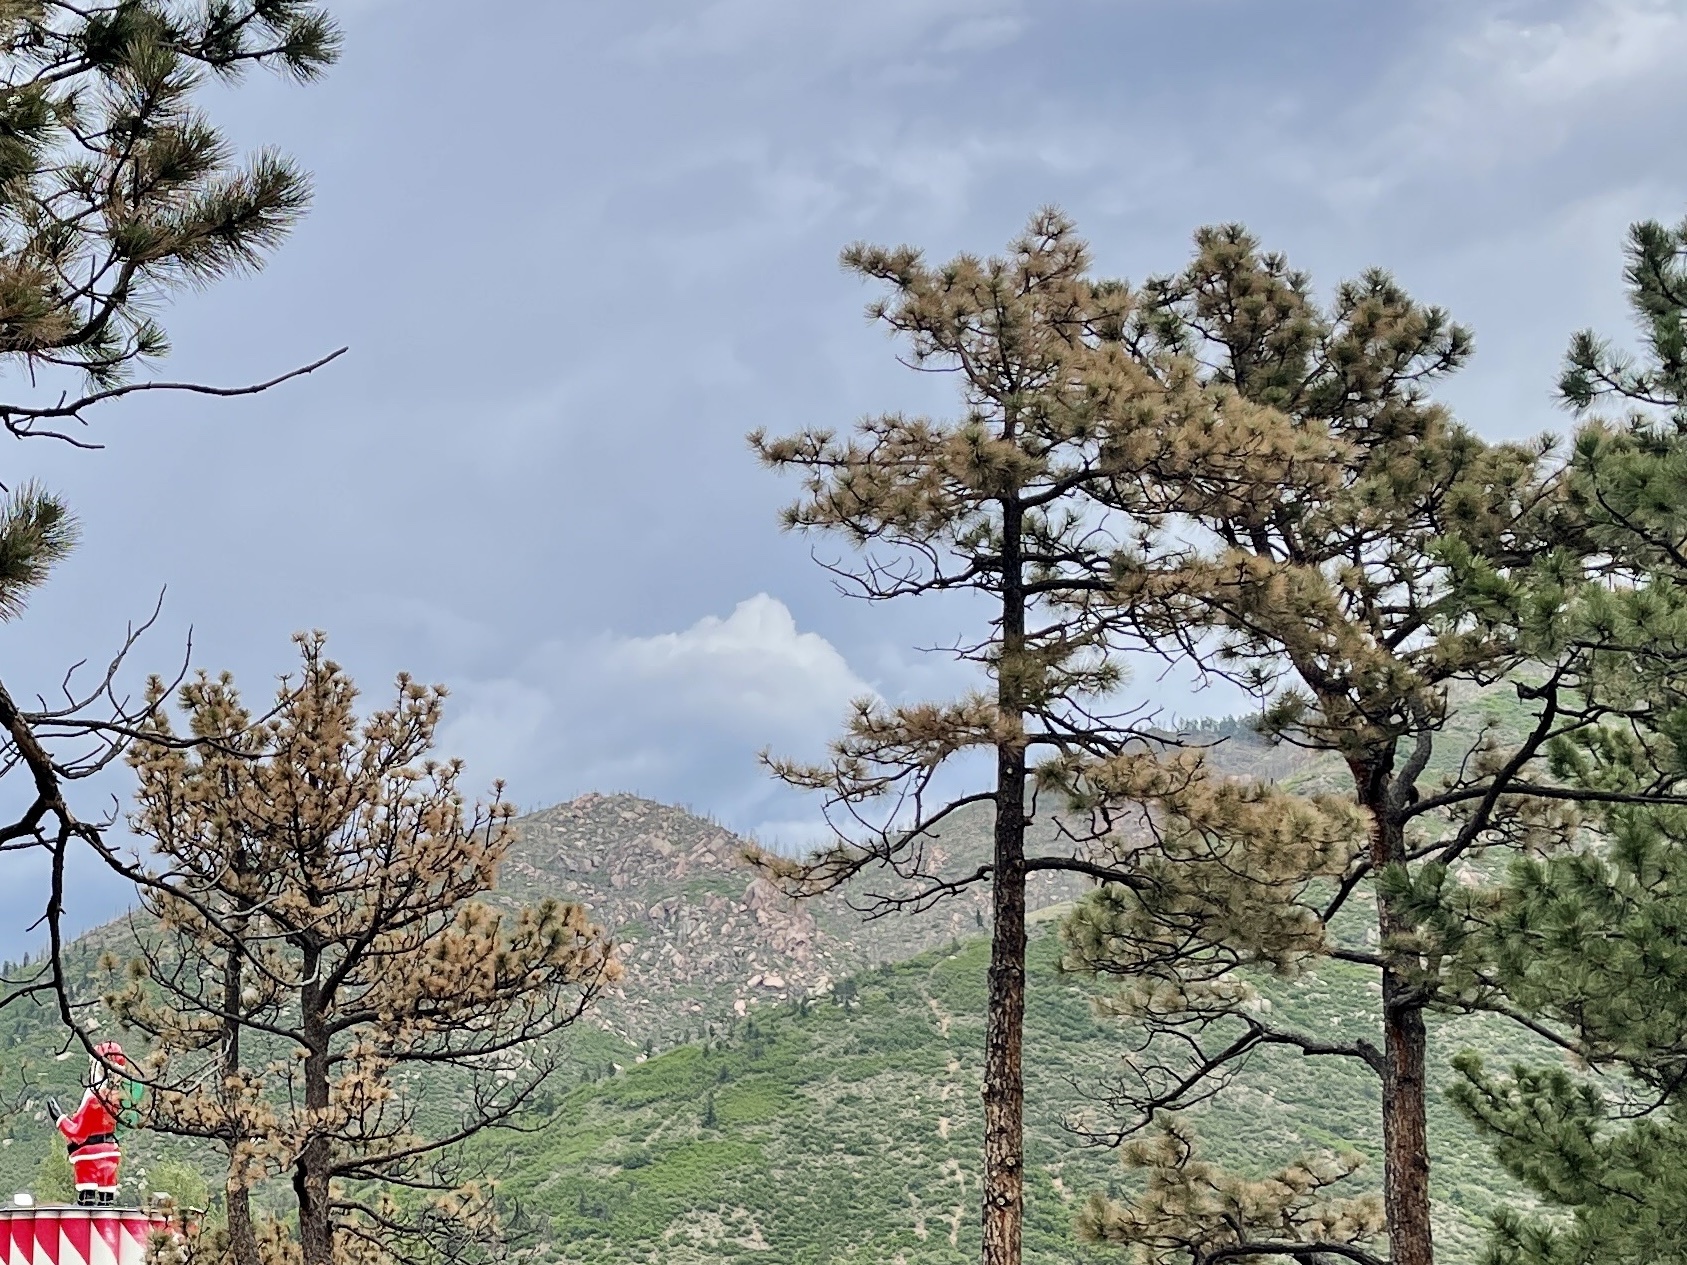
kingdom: Plantae
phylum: Tracheophyta
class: Pinopsida
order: Pinales
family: Pinaceae
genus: Pinus
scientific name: Pinus ponderosa
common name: Western yellow-pine
